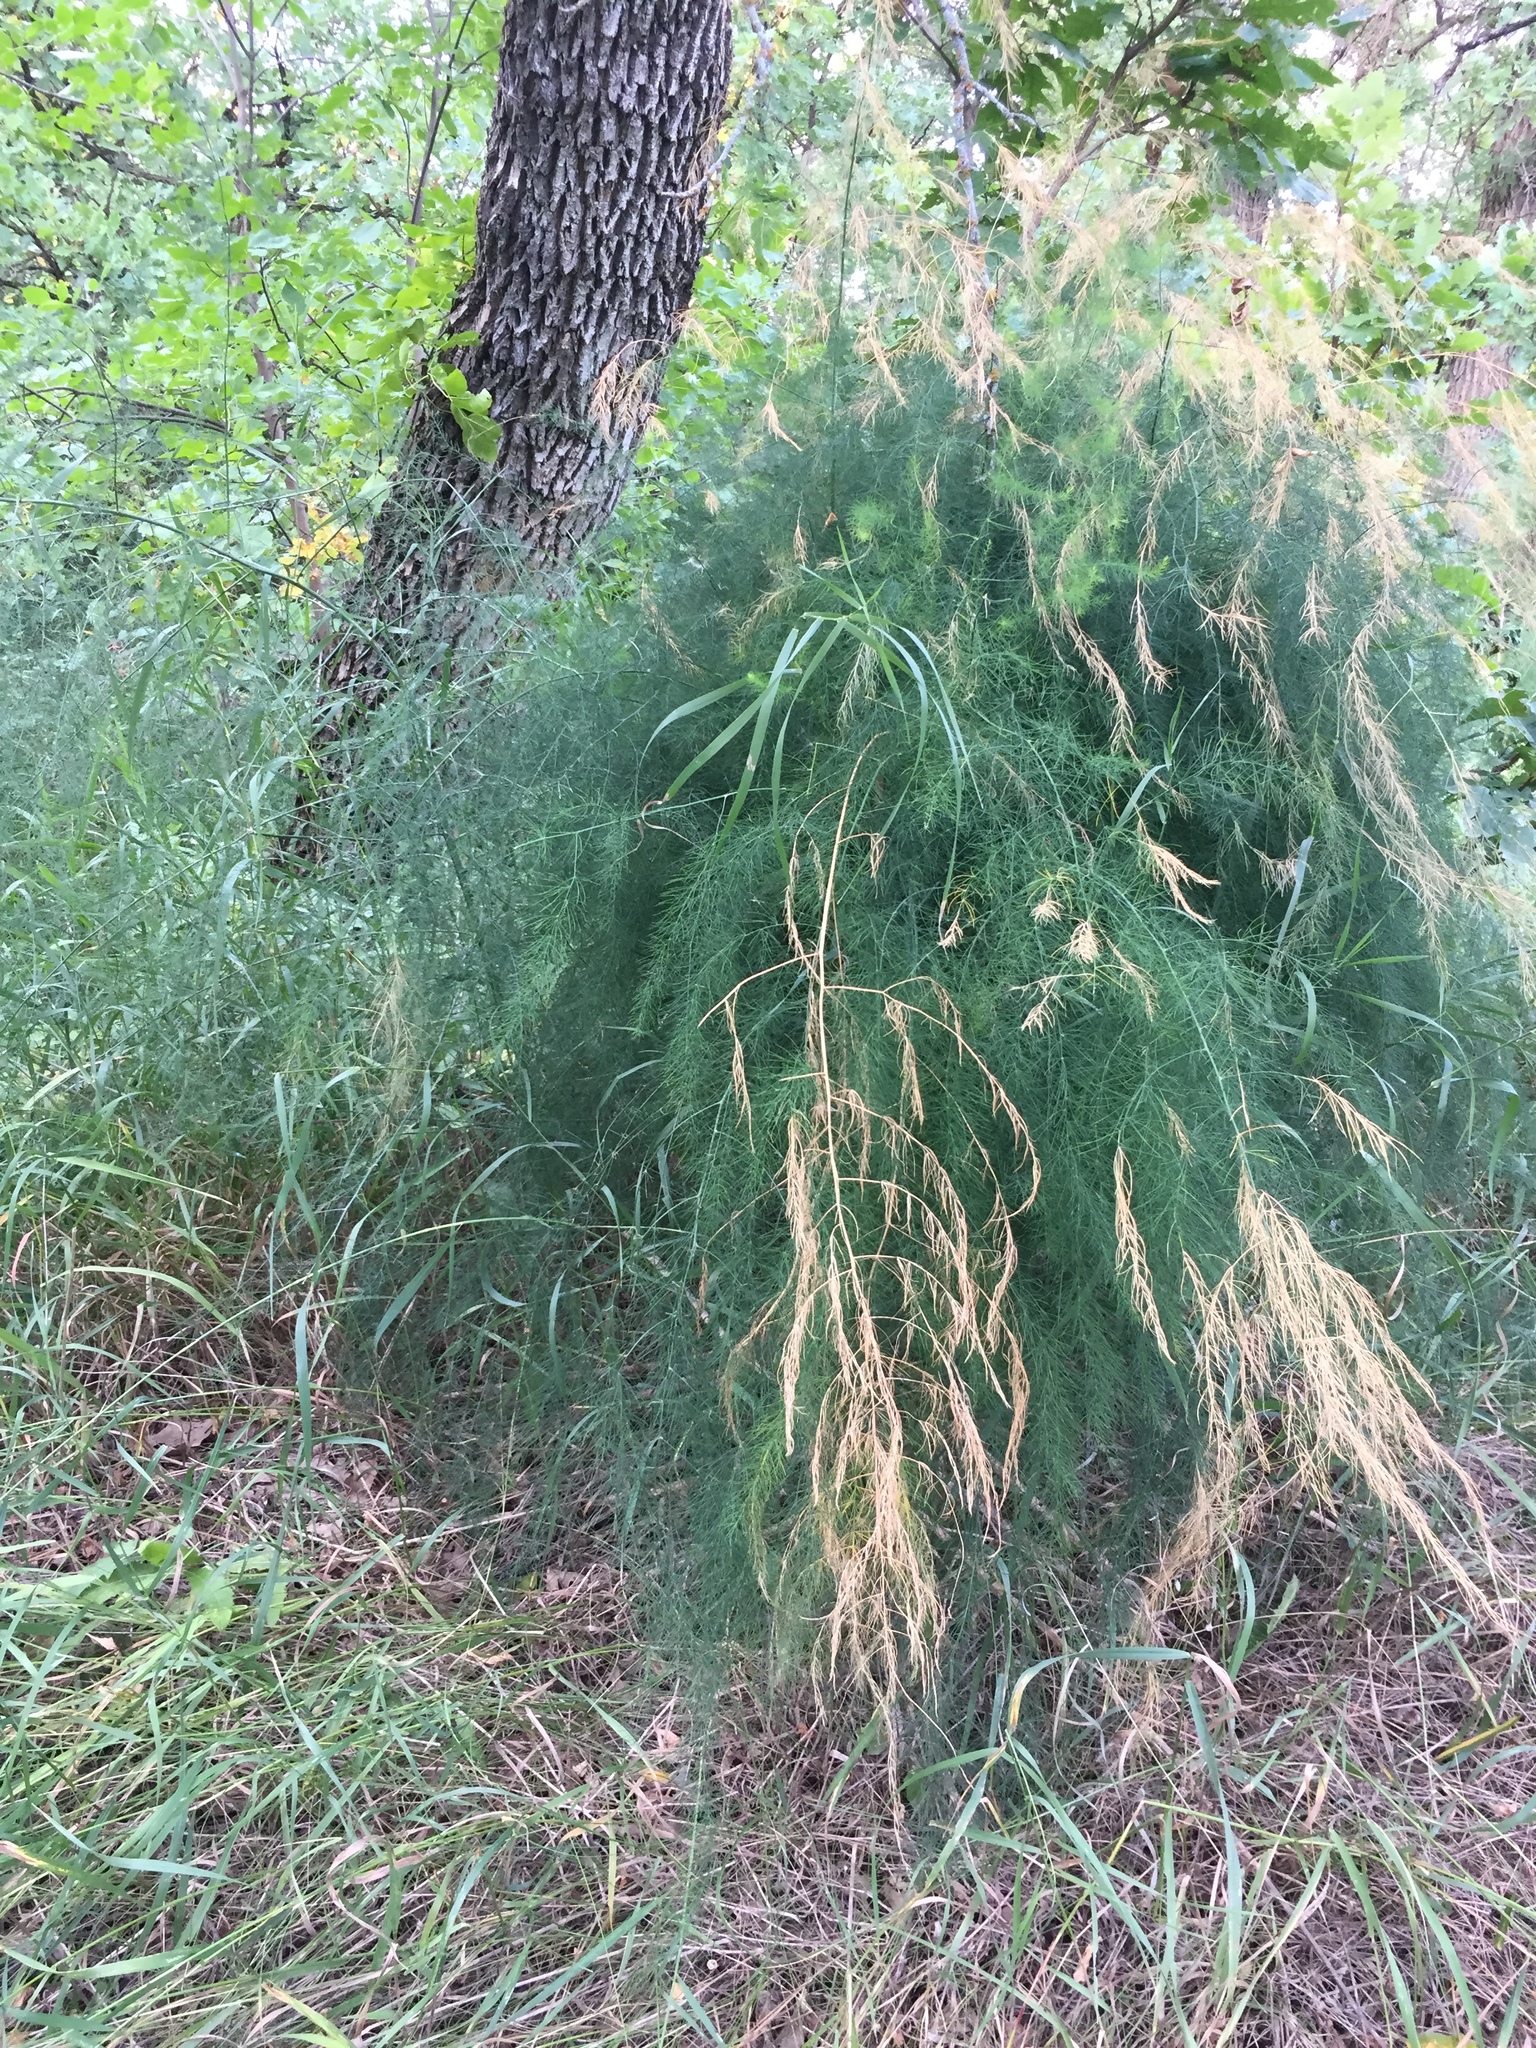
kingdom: Plantae
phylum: Tracheophyta
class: Liliopsida
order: Asparagales
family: Asparagaceae
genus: Asparagus
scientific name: Asparagus officinalis
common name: Garden asparagus
